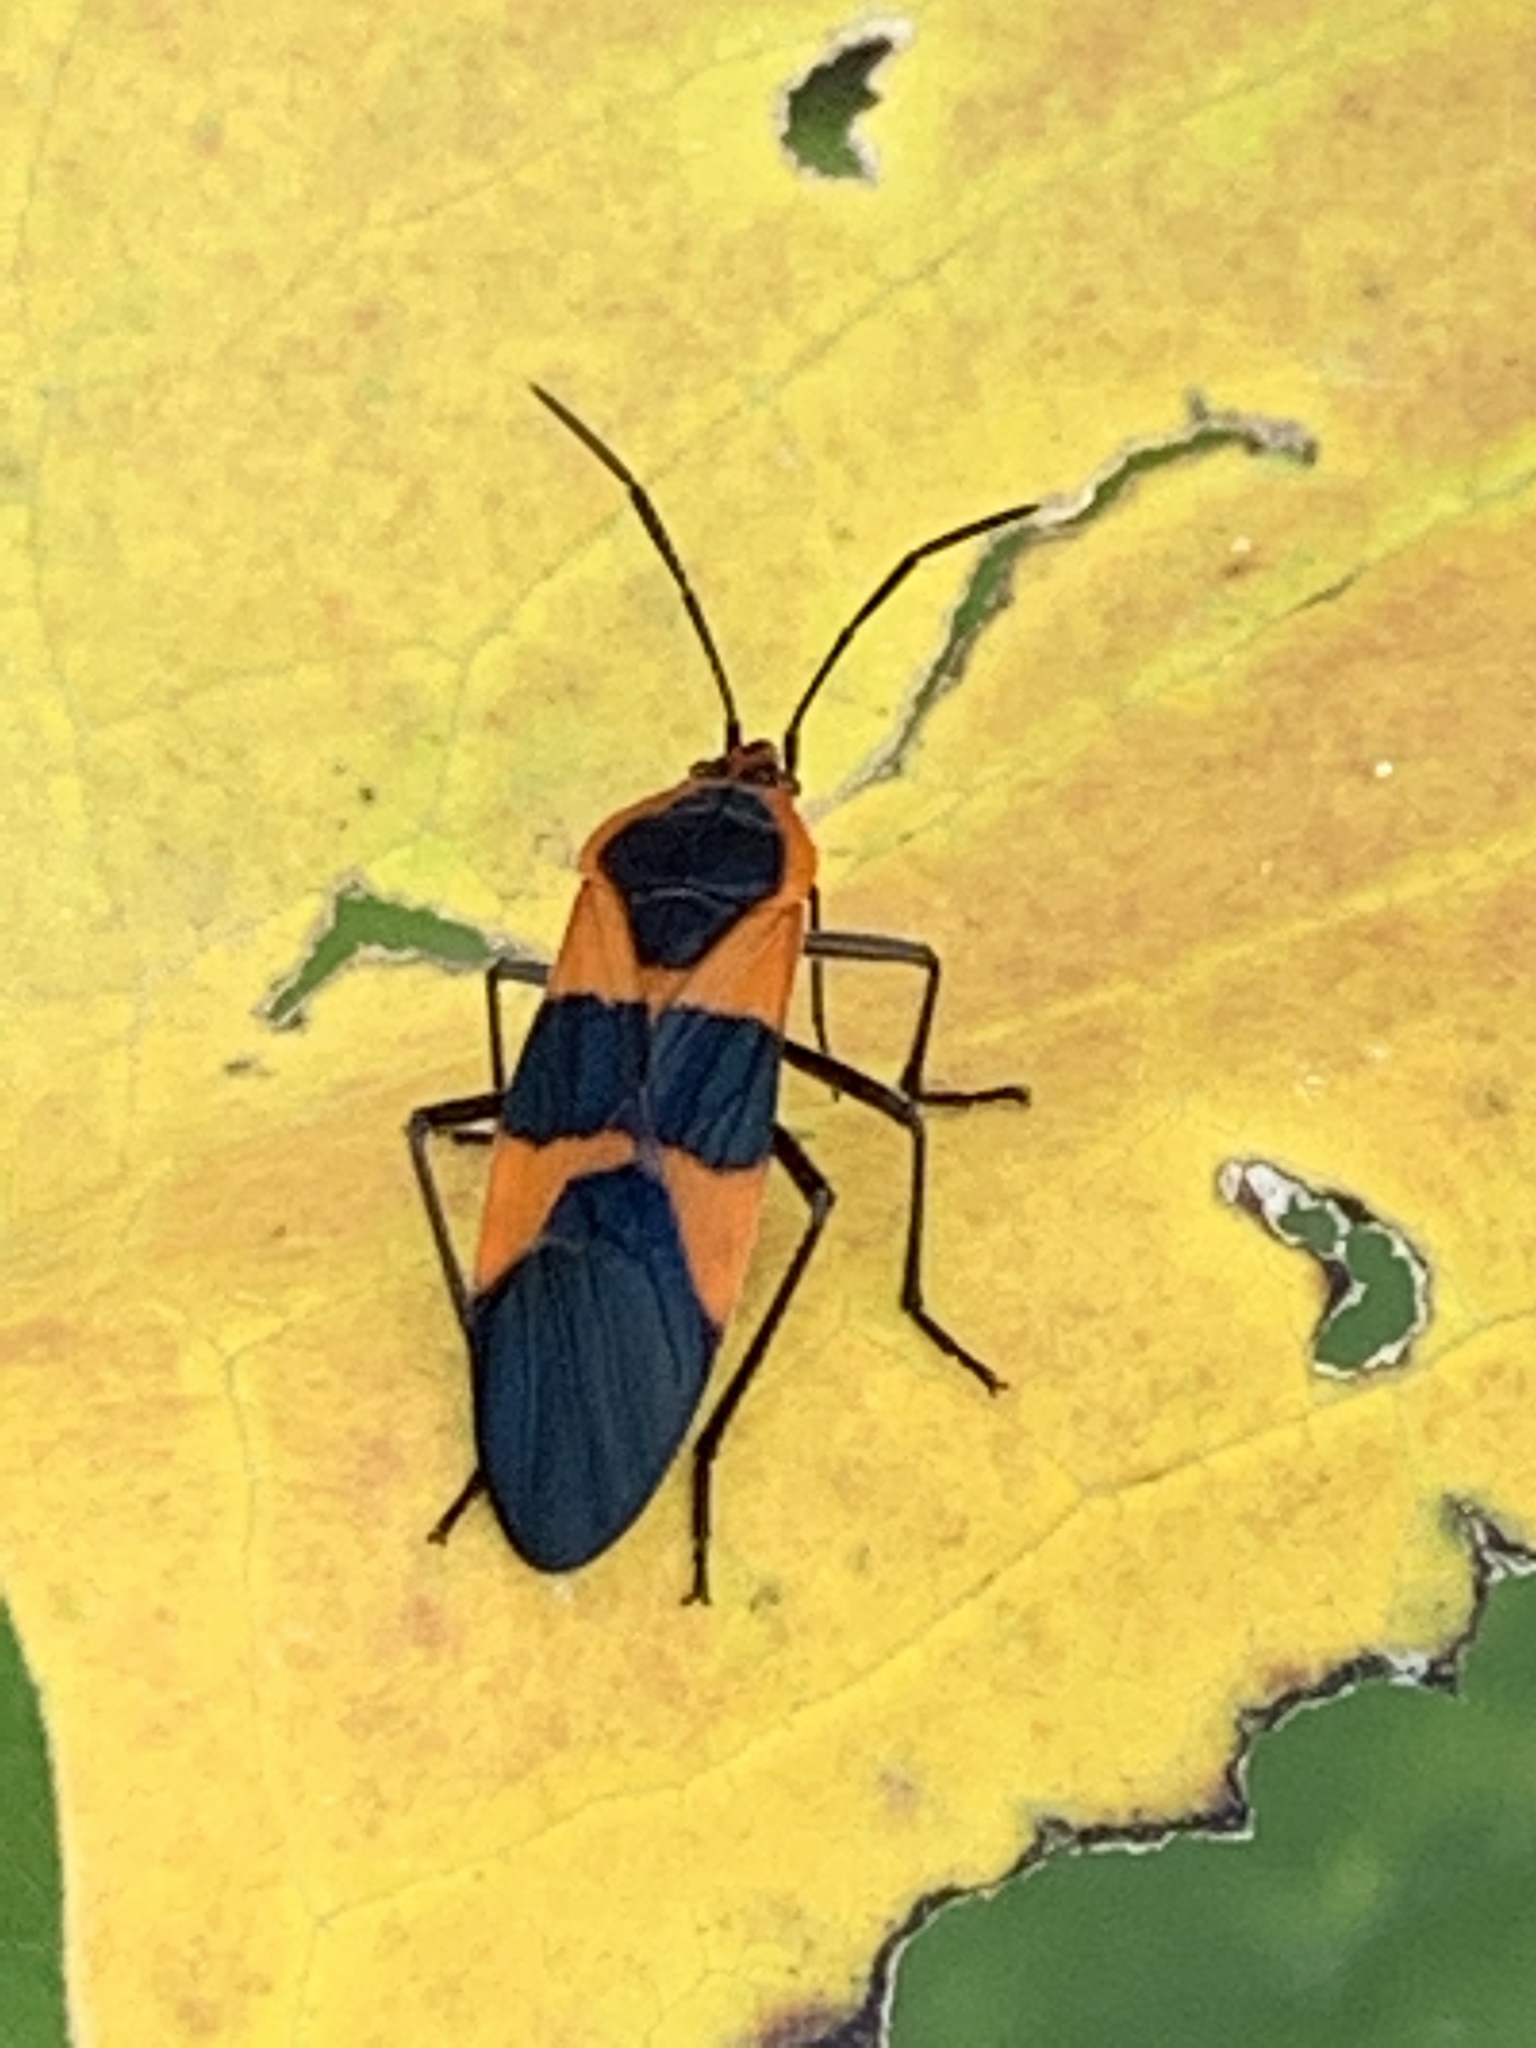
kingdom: Animalia
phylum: Arthropoda
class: Insecta
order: Hemiptera
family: Lygaeidae
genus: Oncopeltus
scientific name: Oncopeltus fasciatus
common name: Large milkweed bug
